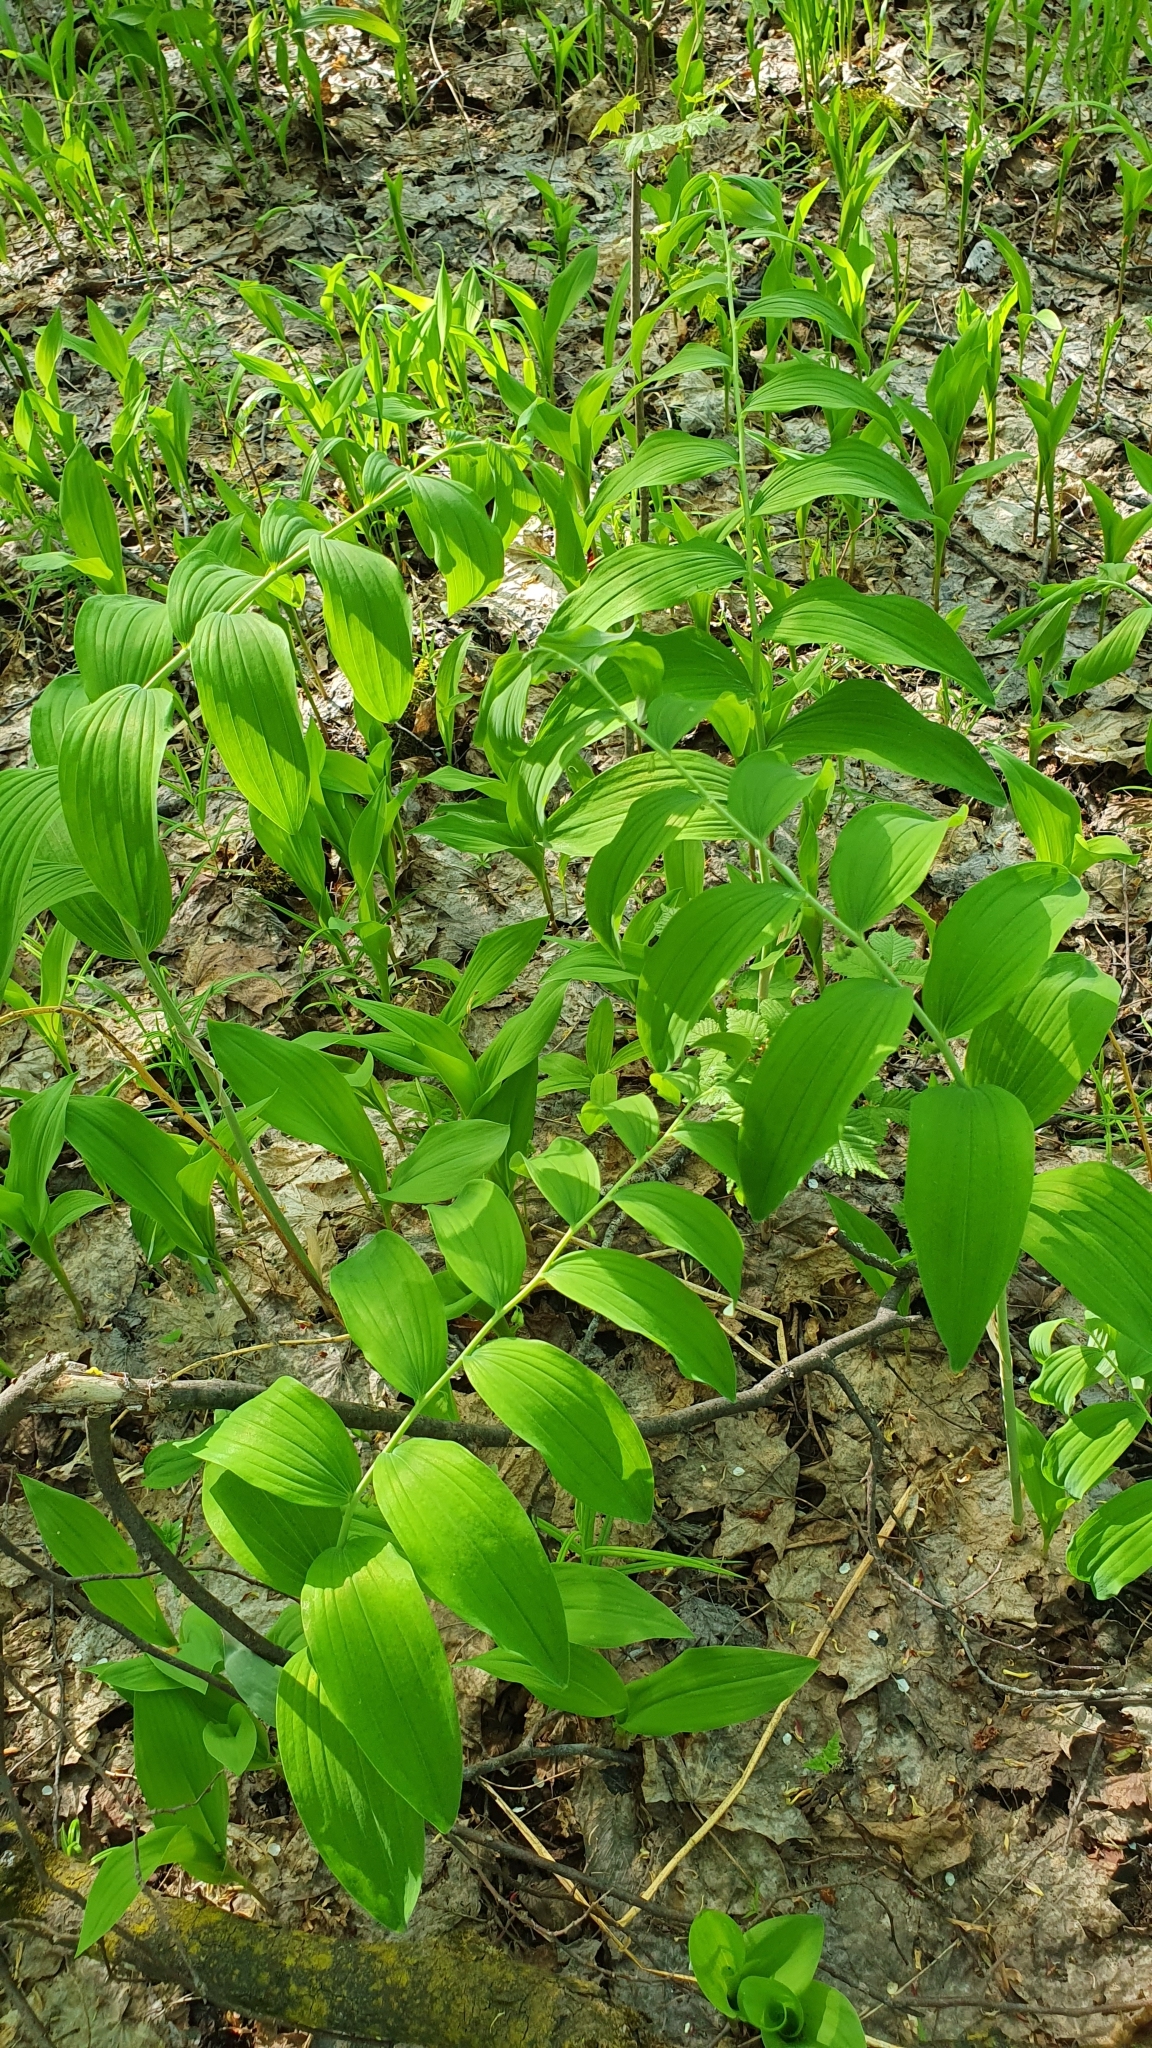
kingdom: Plantae
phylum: Tracheophyta
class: Liliopsida
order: Asparagales
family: Asparagaceae
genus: Polygonatum
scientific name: Polygonatum multiflorum
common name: Solomon's-seal
